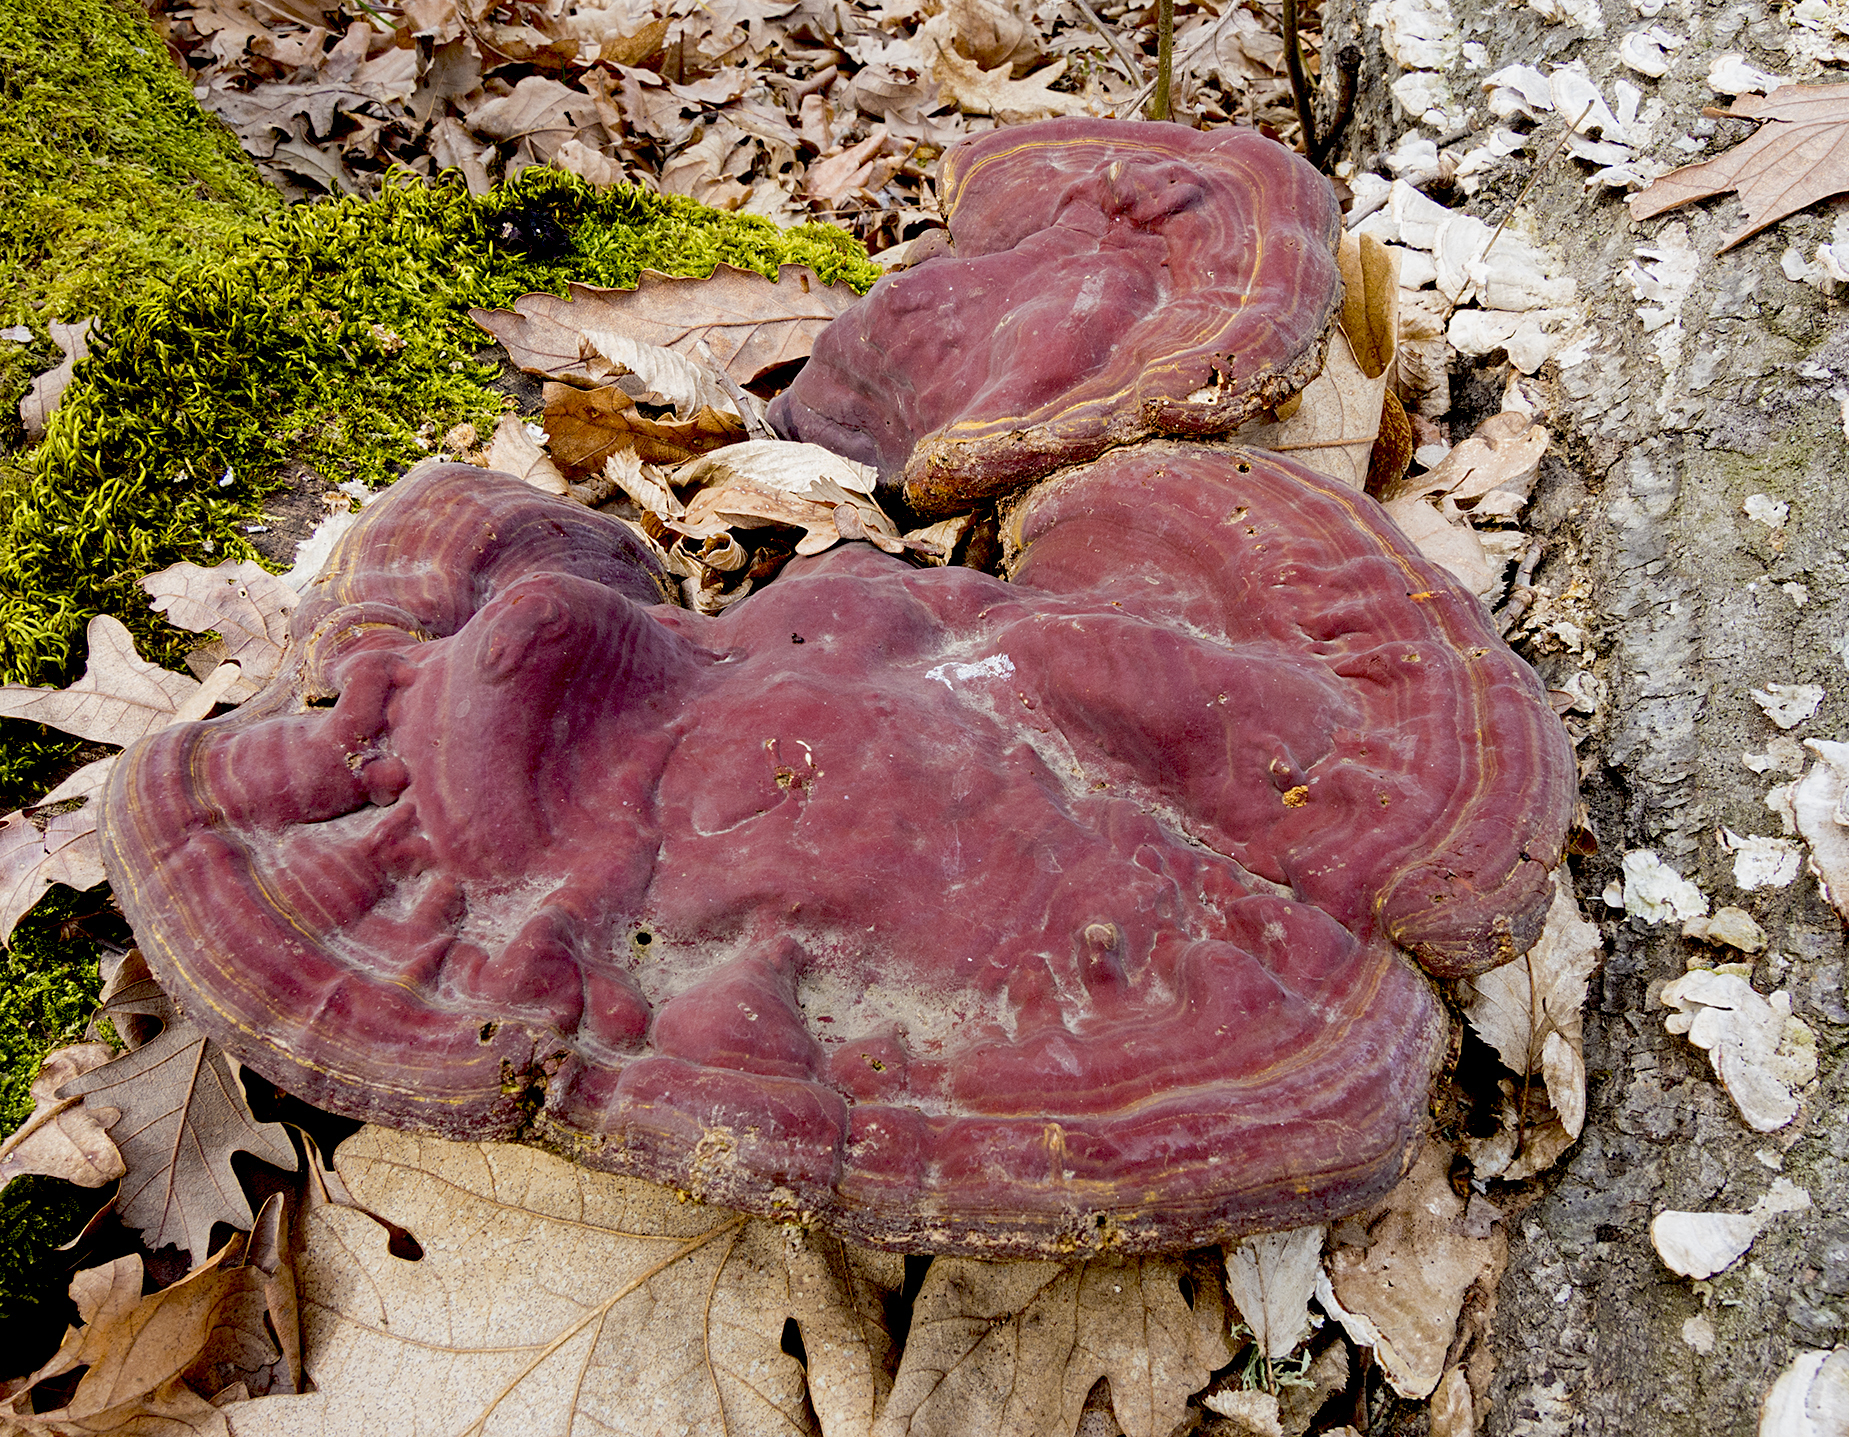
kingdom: Fungi
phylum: Basidiomycota
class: Agaricomycetes
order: Polyporales
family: Polyporaceae
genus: Ganoderma
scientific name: Ganoderma lucidum
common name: Lacquered bracket
